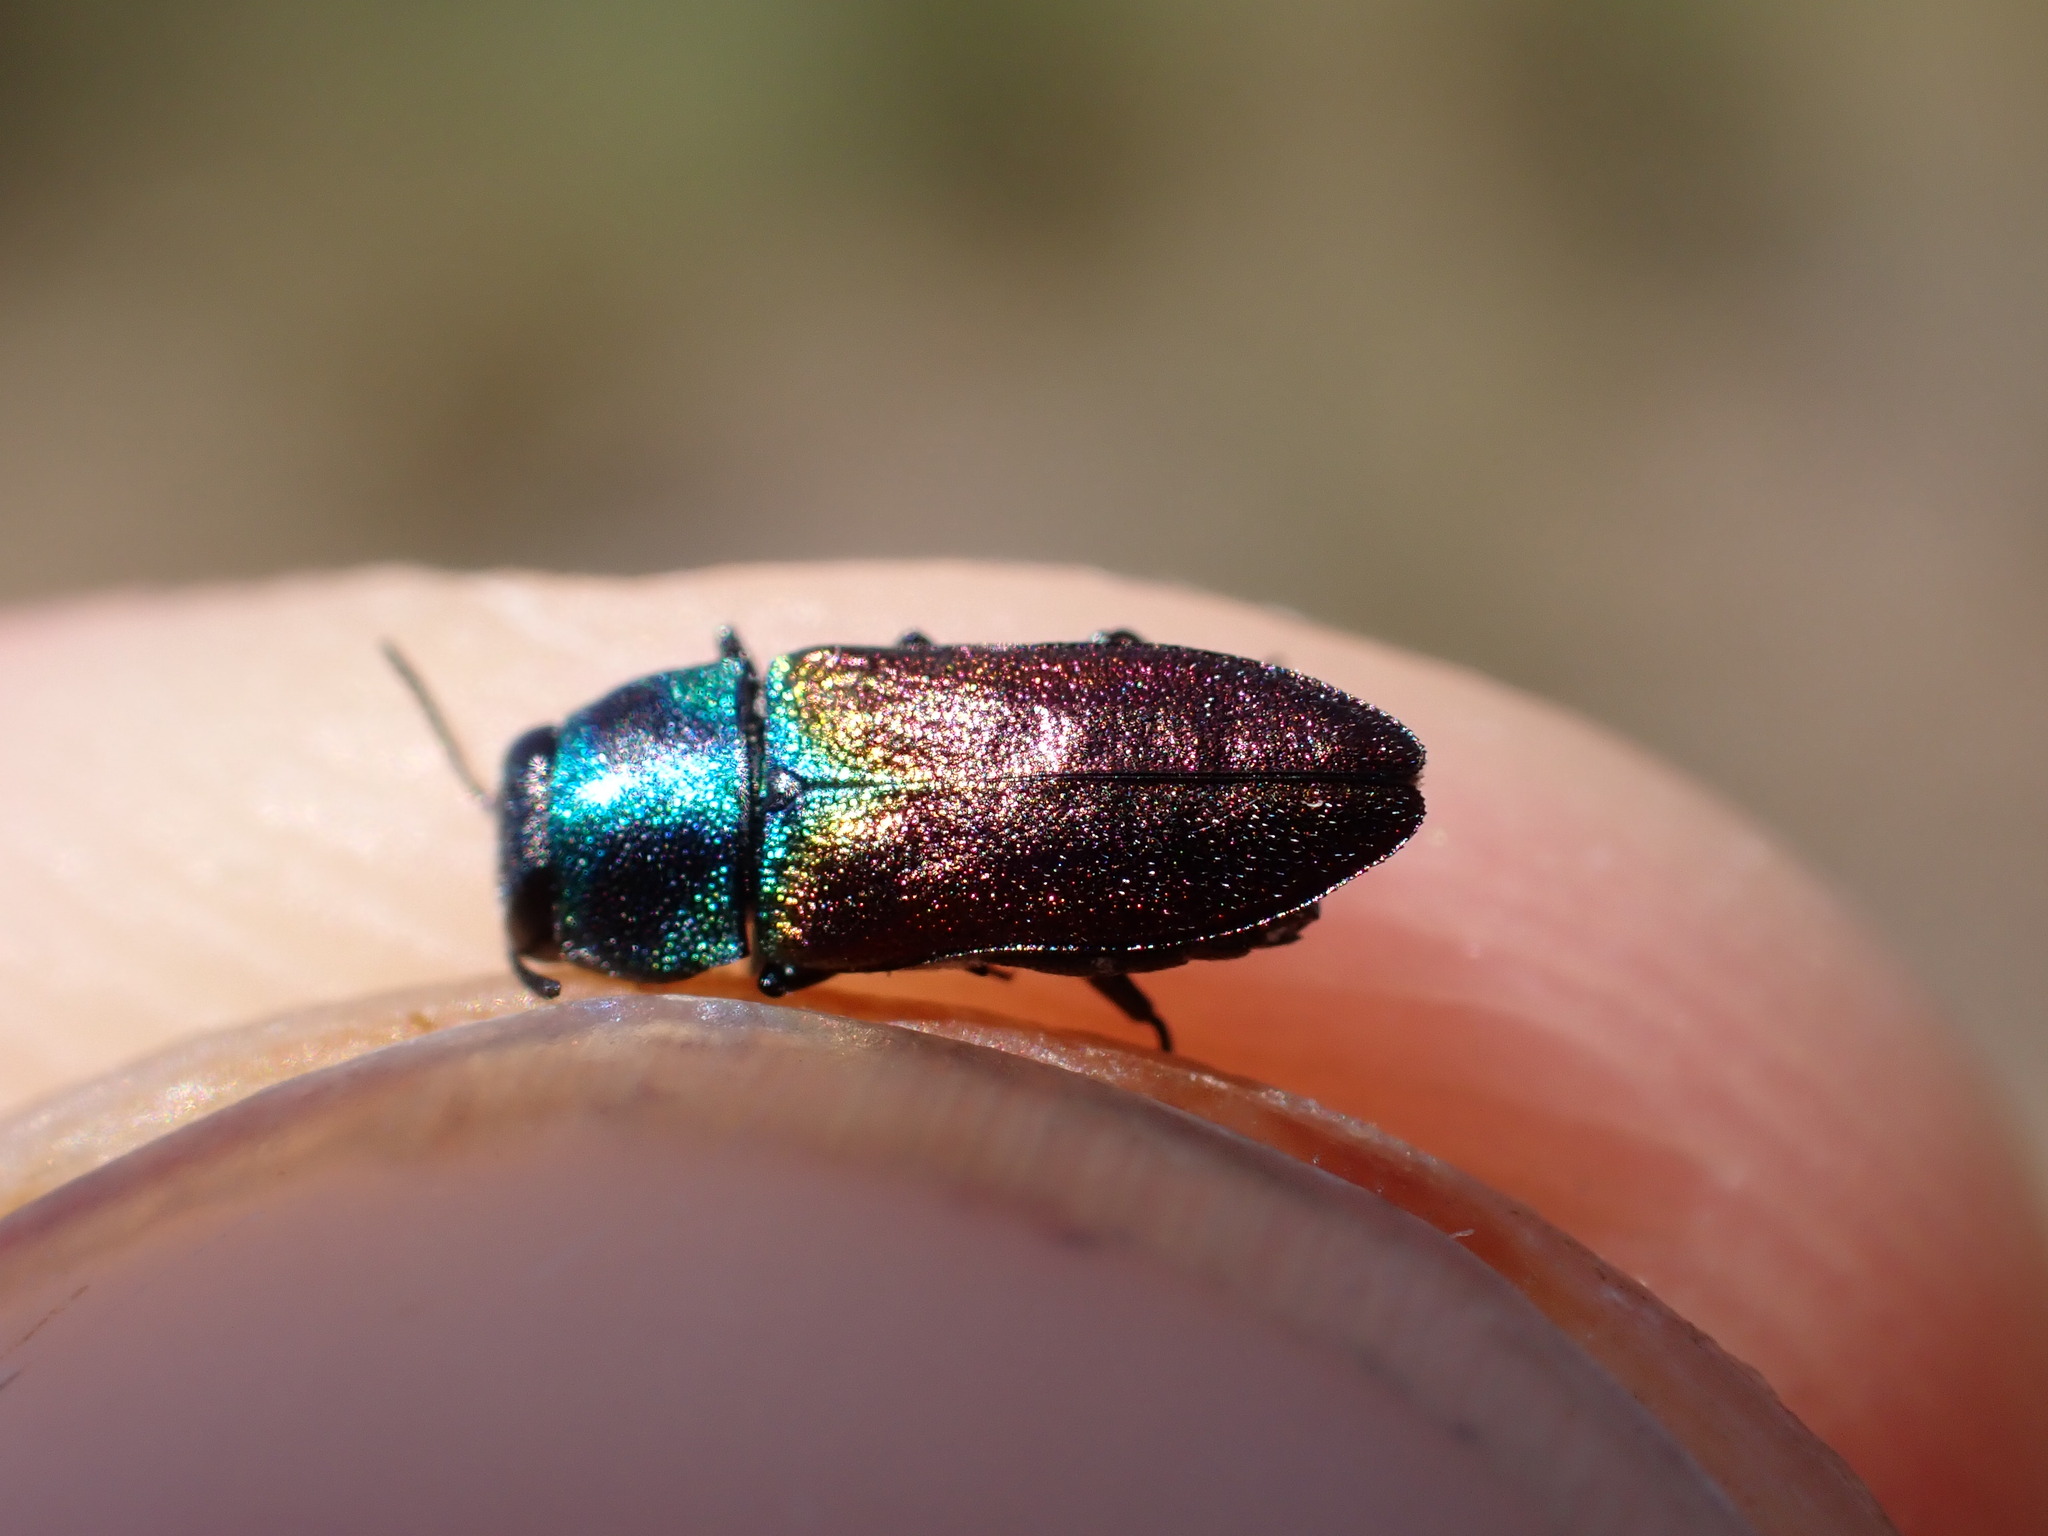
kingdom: Animalia
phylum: Arthropoda
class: Insecta
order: Coleoptera
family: Buprestidae
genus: Anthaxia
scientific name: Anthaxia ignipennis
